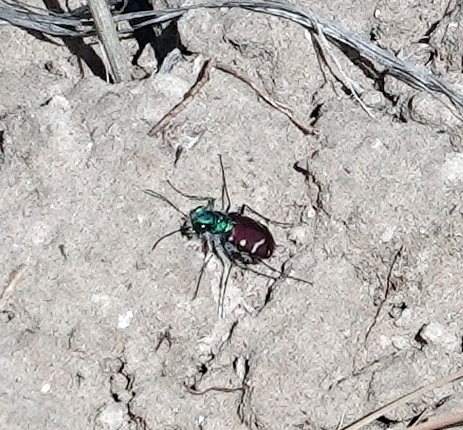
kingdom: Animalia
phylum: Arthropoda
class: Insecta
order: Coleoptera
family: Carabidae
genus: Cicindela
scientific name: Cicindela splendida
